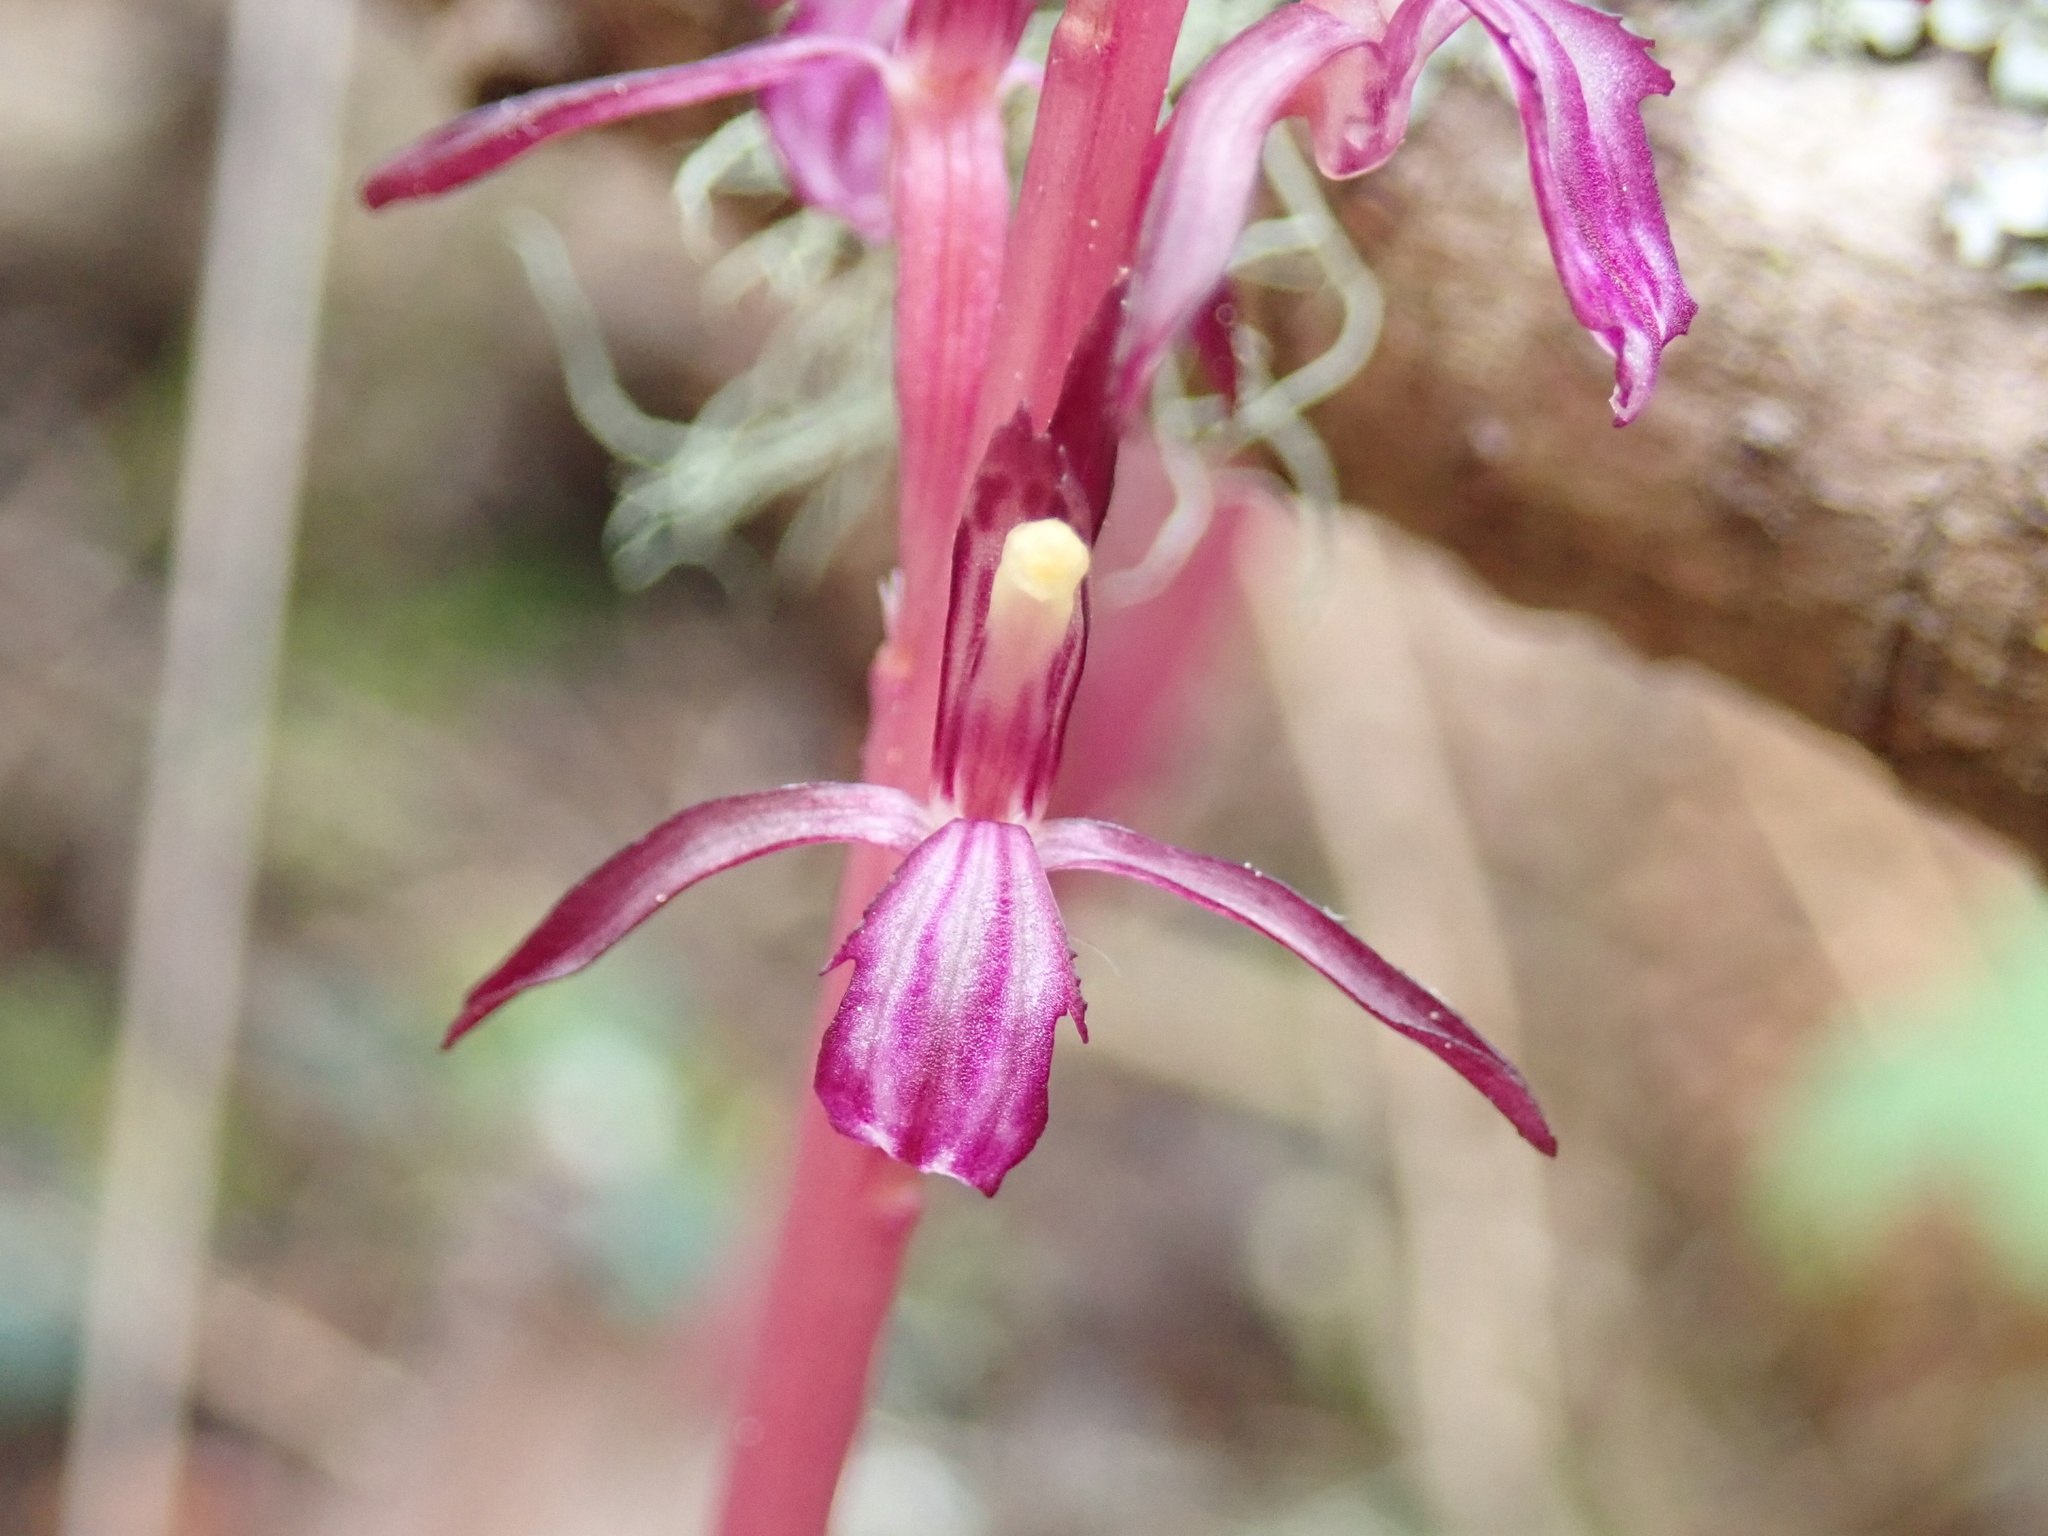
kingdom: Plantae
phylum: Tracheophyta
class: Liliopsida
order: Asparagales
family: Orchidaceae
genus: Corallorhiza
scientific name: Corallorhiza mertensiana
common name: Pacific coralroot
